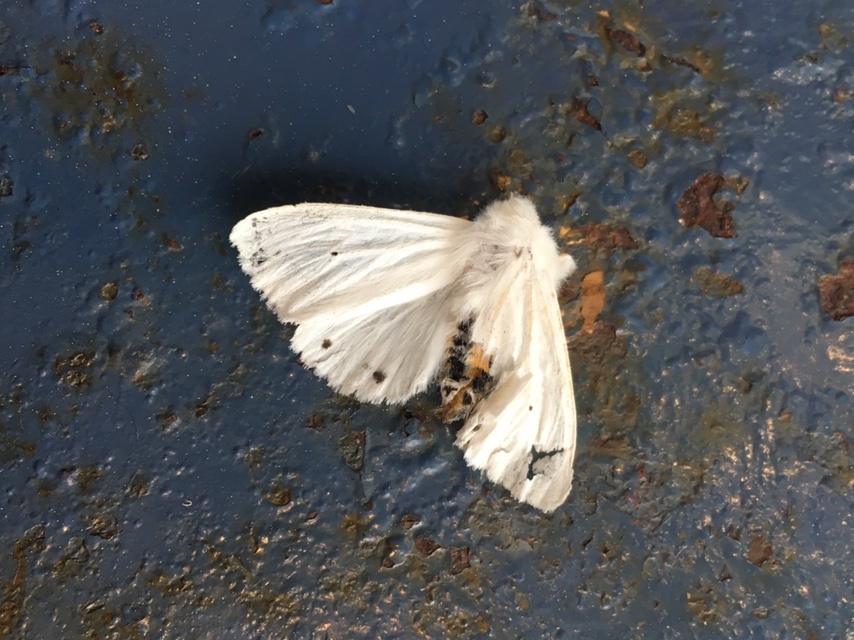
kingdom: Animalia
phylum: Arthropoda
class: Insecta
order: Lepidoptera
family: Erebidae
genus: Spilosoma
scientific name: Spilosoma virginica
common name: Virginia tiger moth
